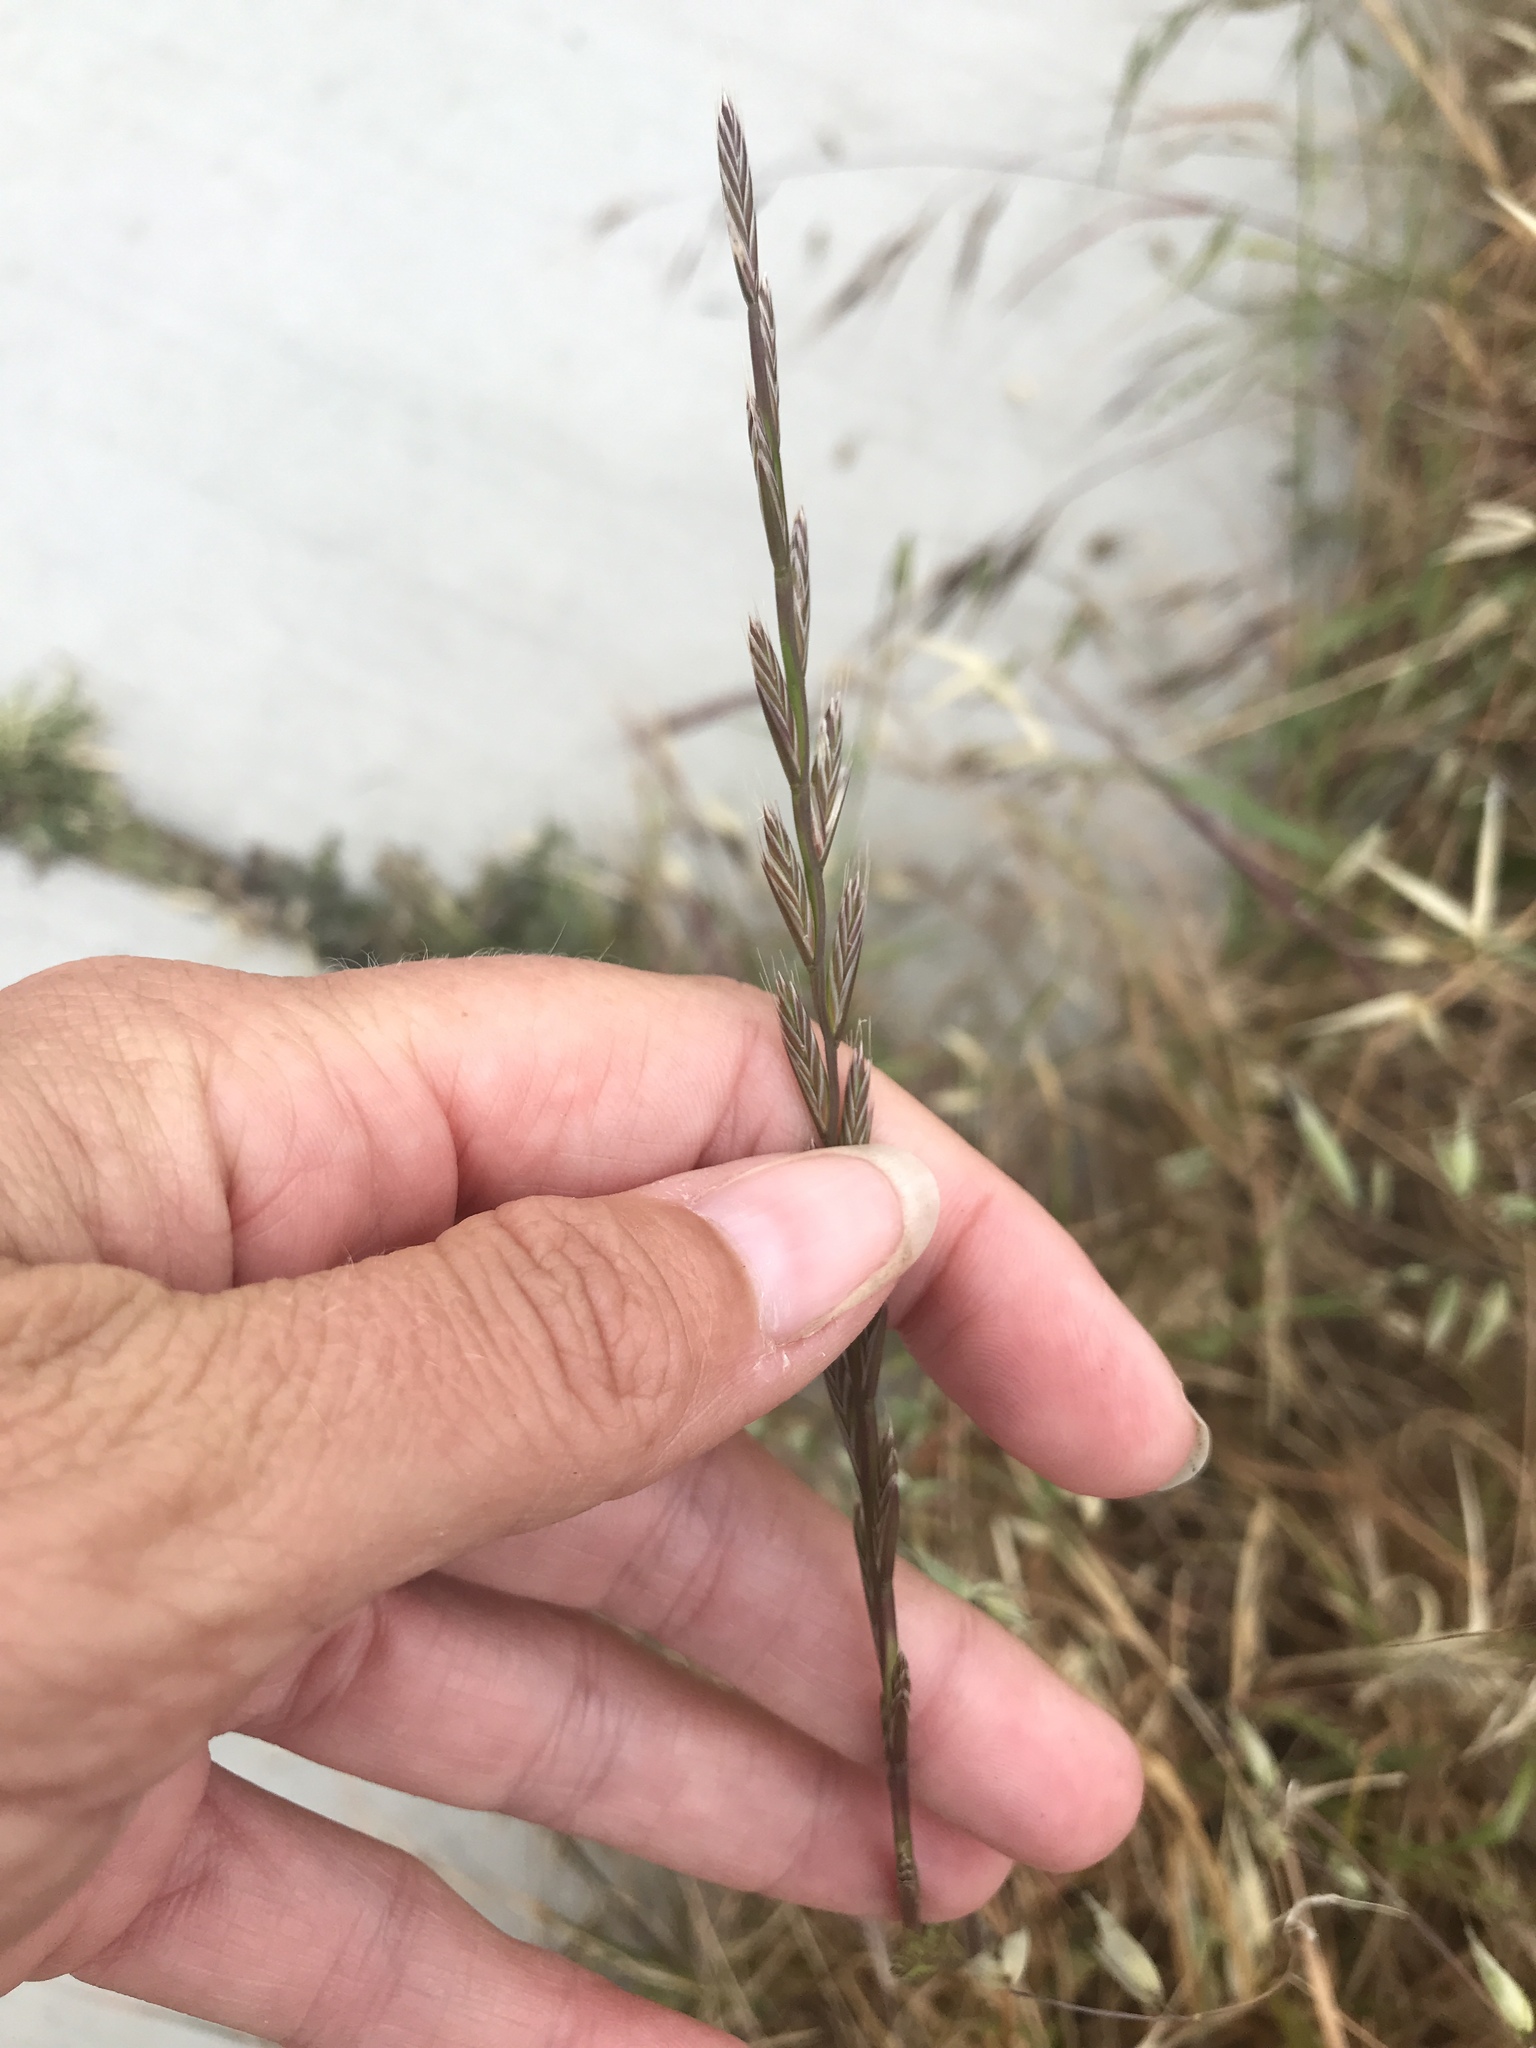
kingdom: Plantae
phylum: Tracheophyta
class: Liliopsida
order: Poales
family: Poaceae
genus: Lolium
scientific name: Lolium perenne
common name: Perennial ryegrass
